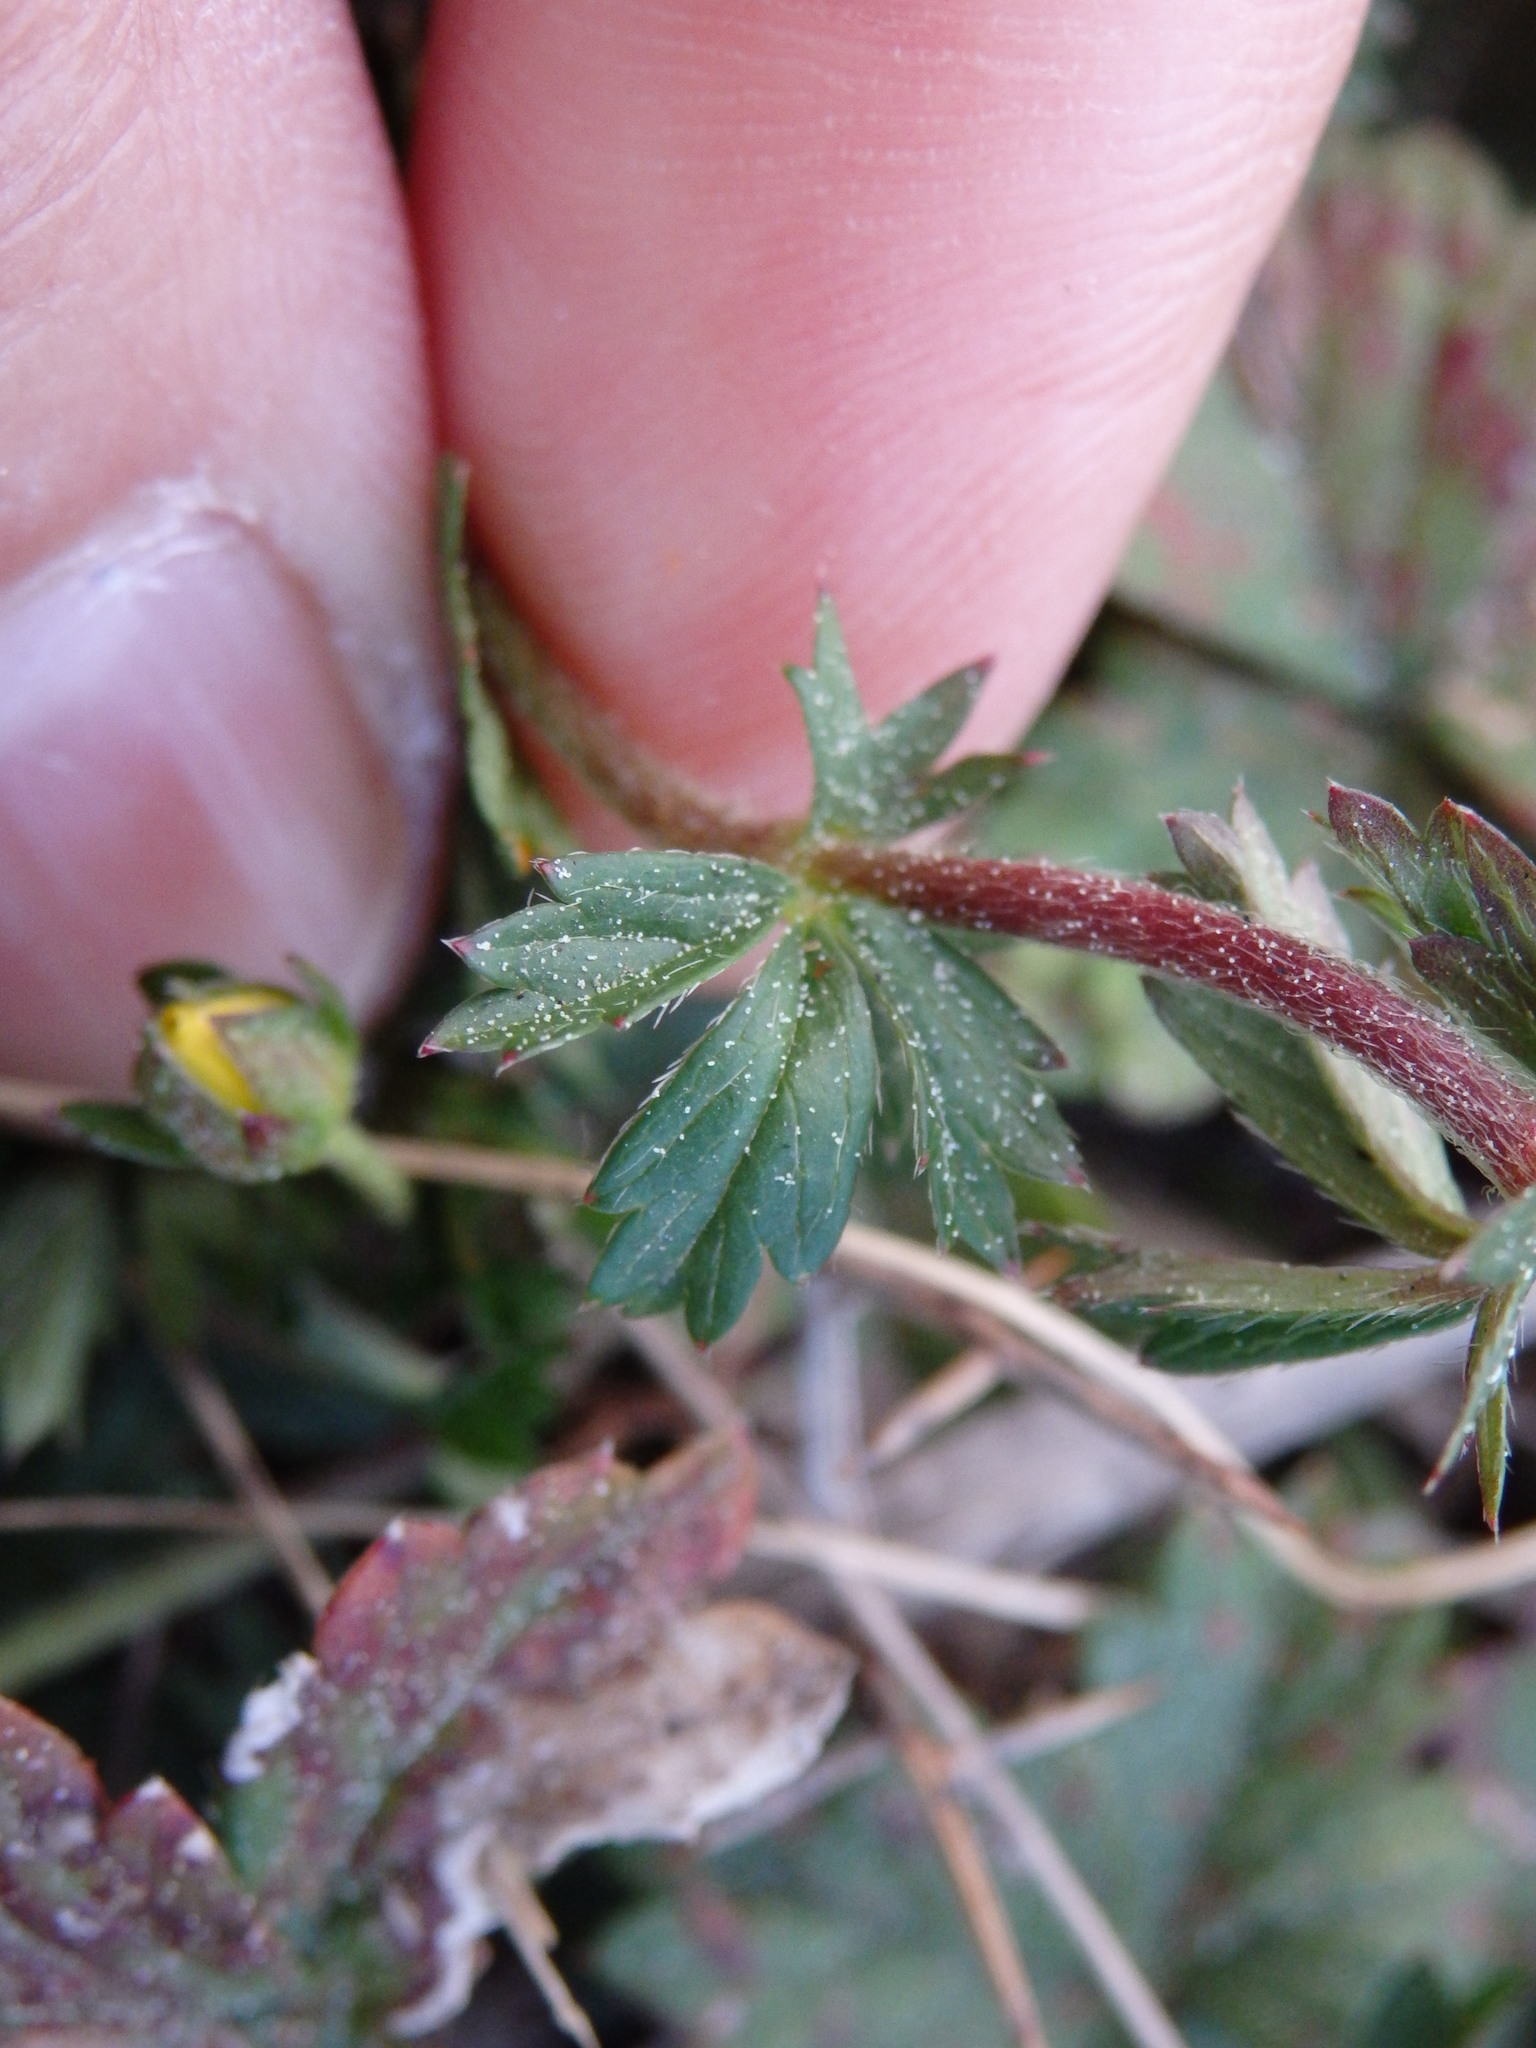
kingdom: Plantae
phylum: Tracheophyta
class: Magnoliopsida
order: Rosales
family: Rosaceae
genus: Potentilla
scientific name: Potentilla erecta
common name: Tormentil
